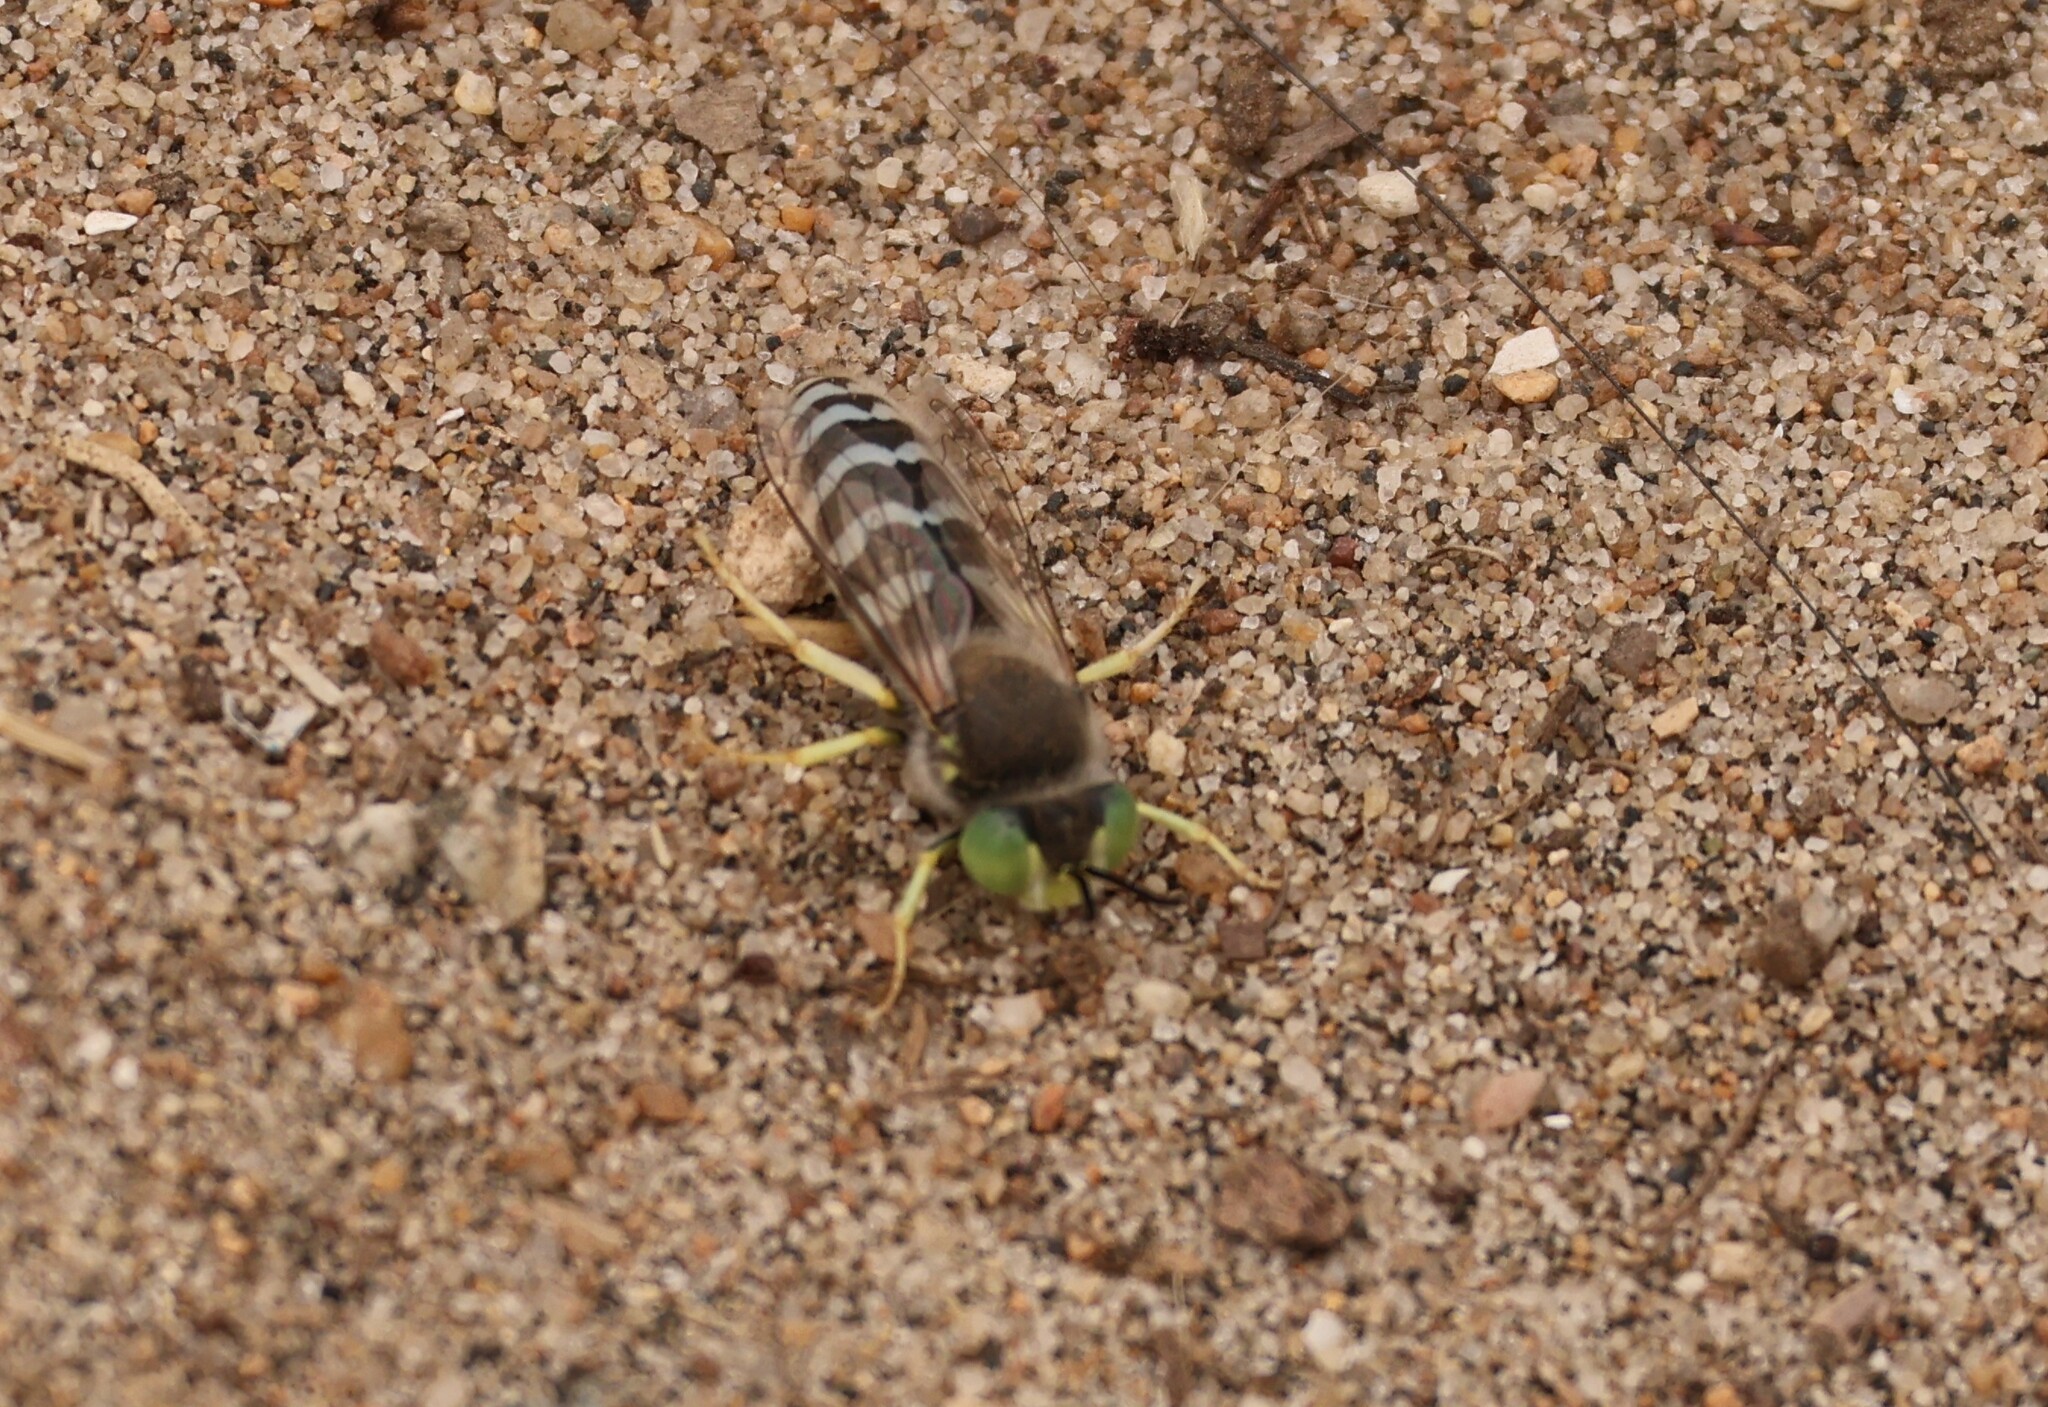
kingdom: Animalia
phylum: Arthropoda
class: Insecta
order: Hymenoptera
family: Crabronidae
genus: Bembix
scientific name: Bembix americana
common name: American sand wasp
